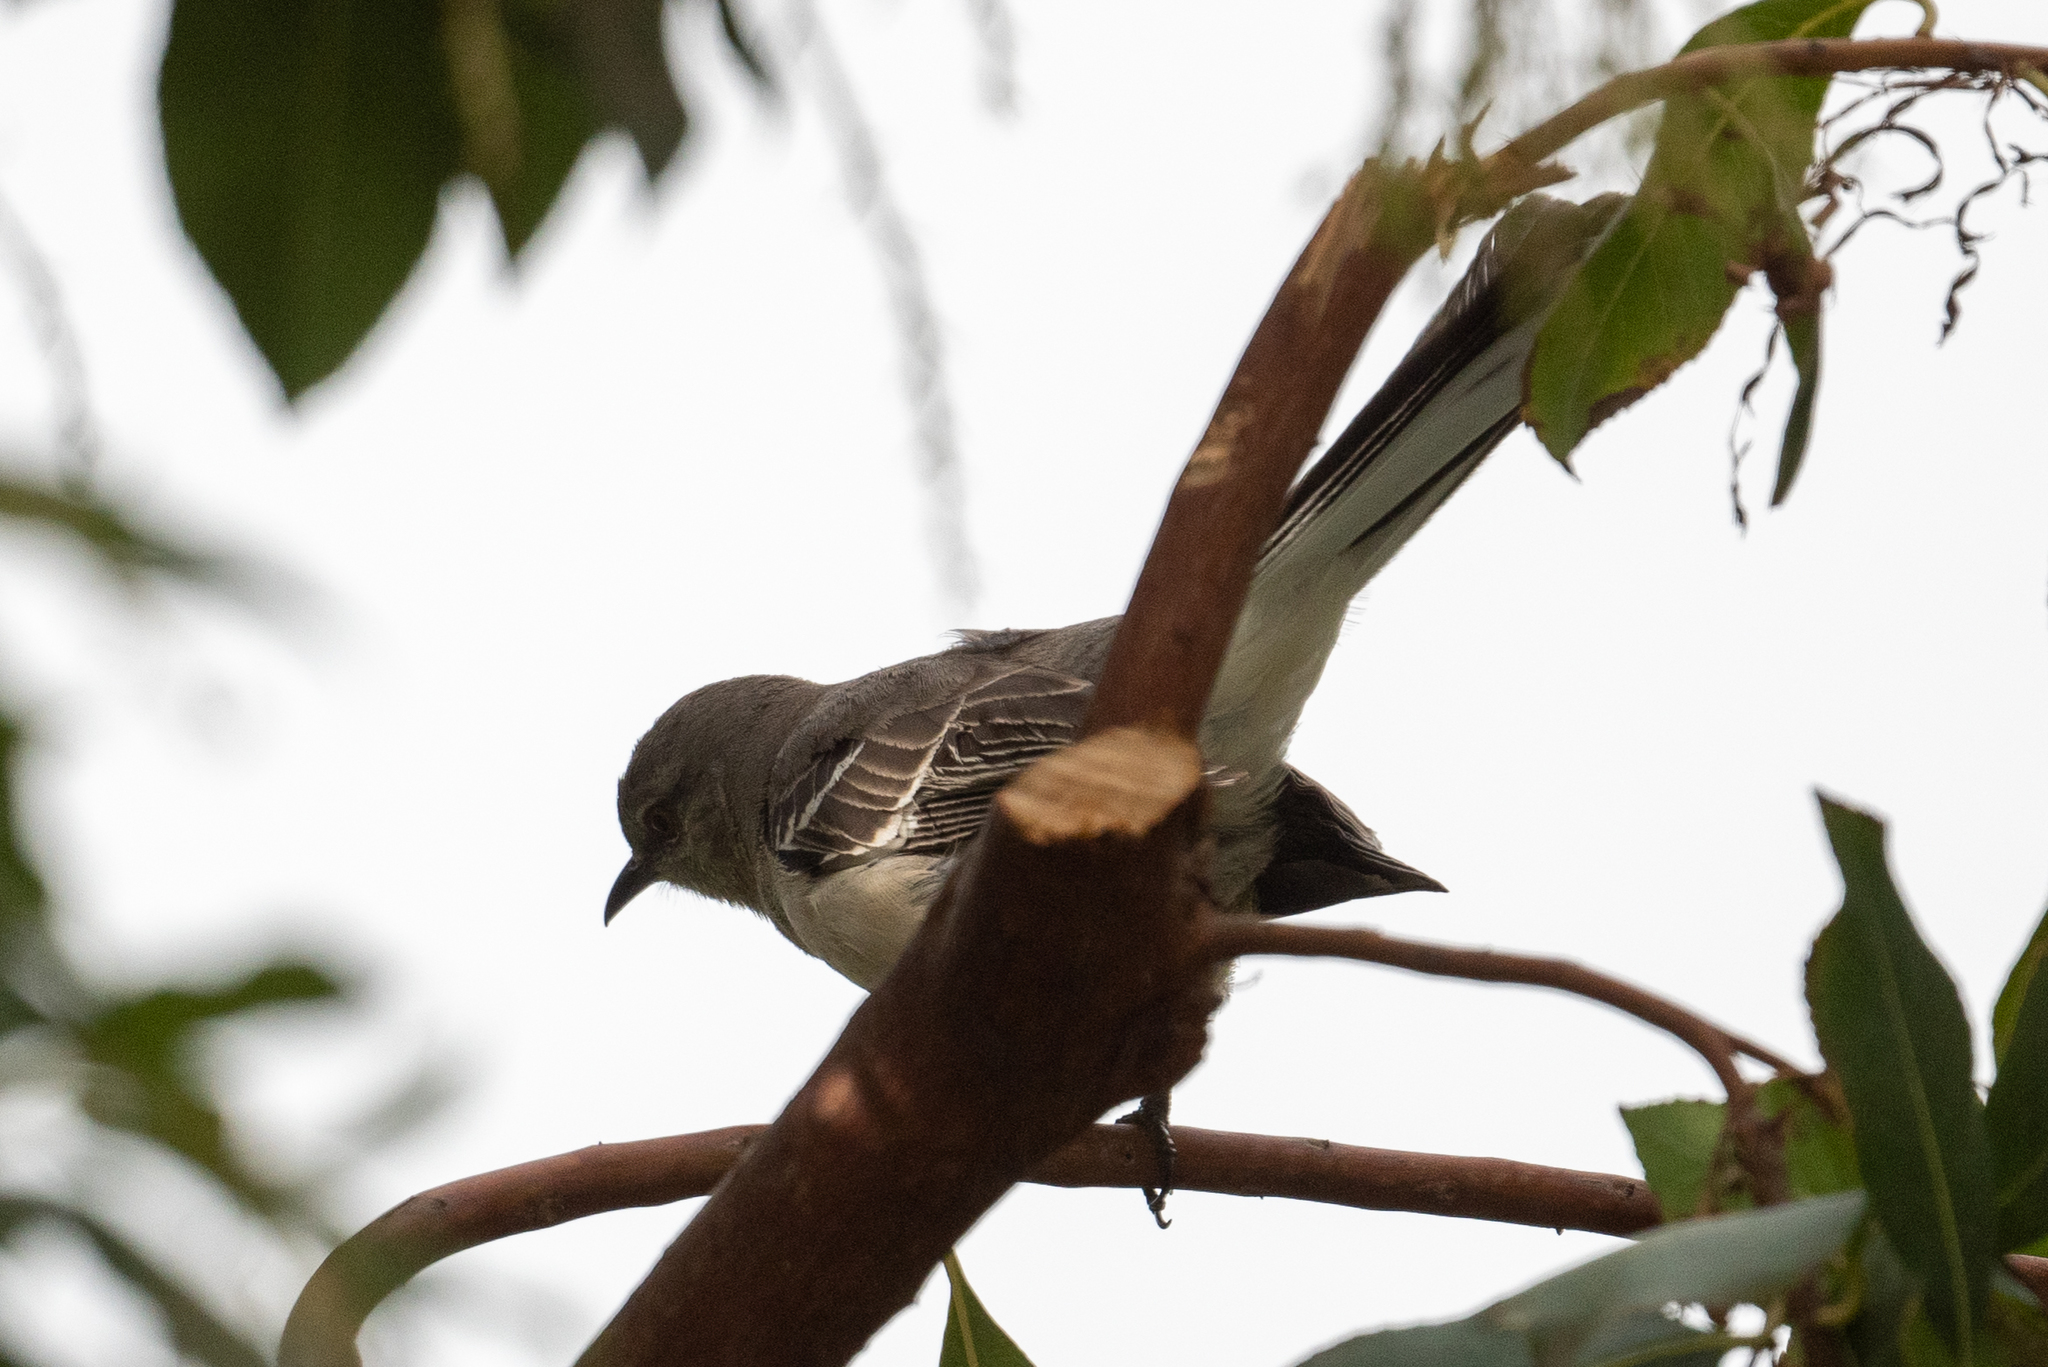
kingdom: Animalia
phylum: Chordata
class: Aves
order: Passeriformes
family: Mimidae
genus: Mimus
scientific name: Mimus polyglottos
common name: Northern mockingbird
